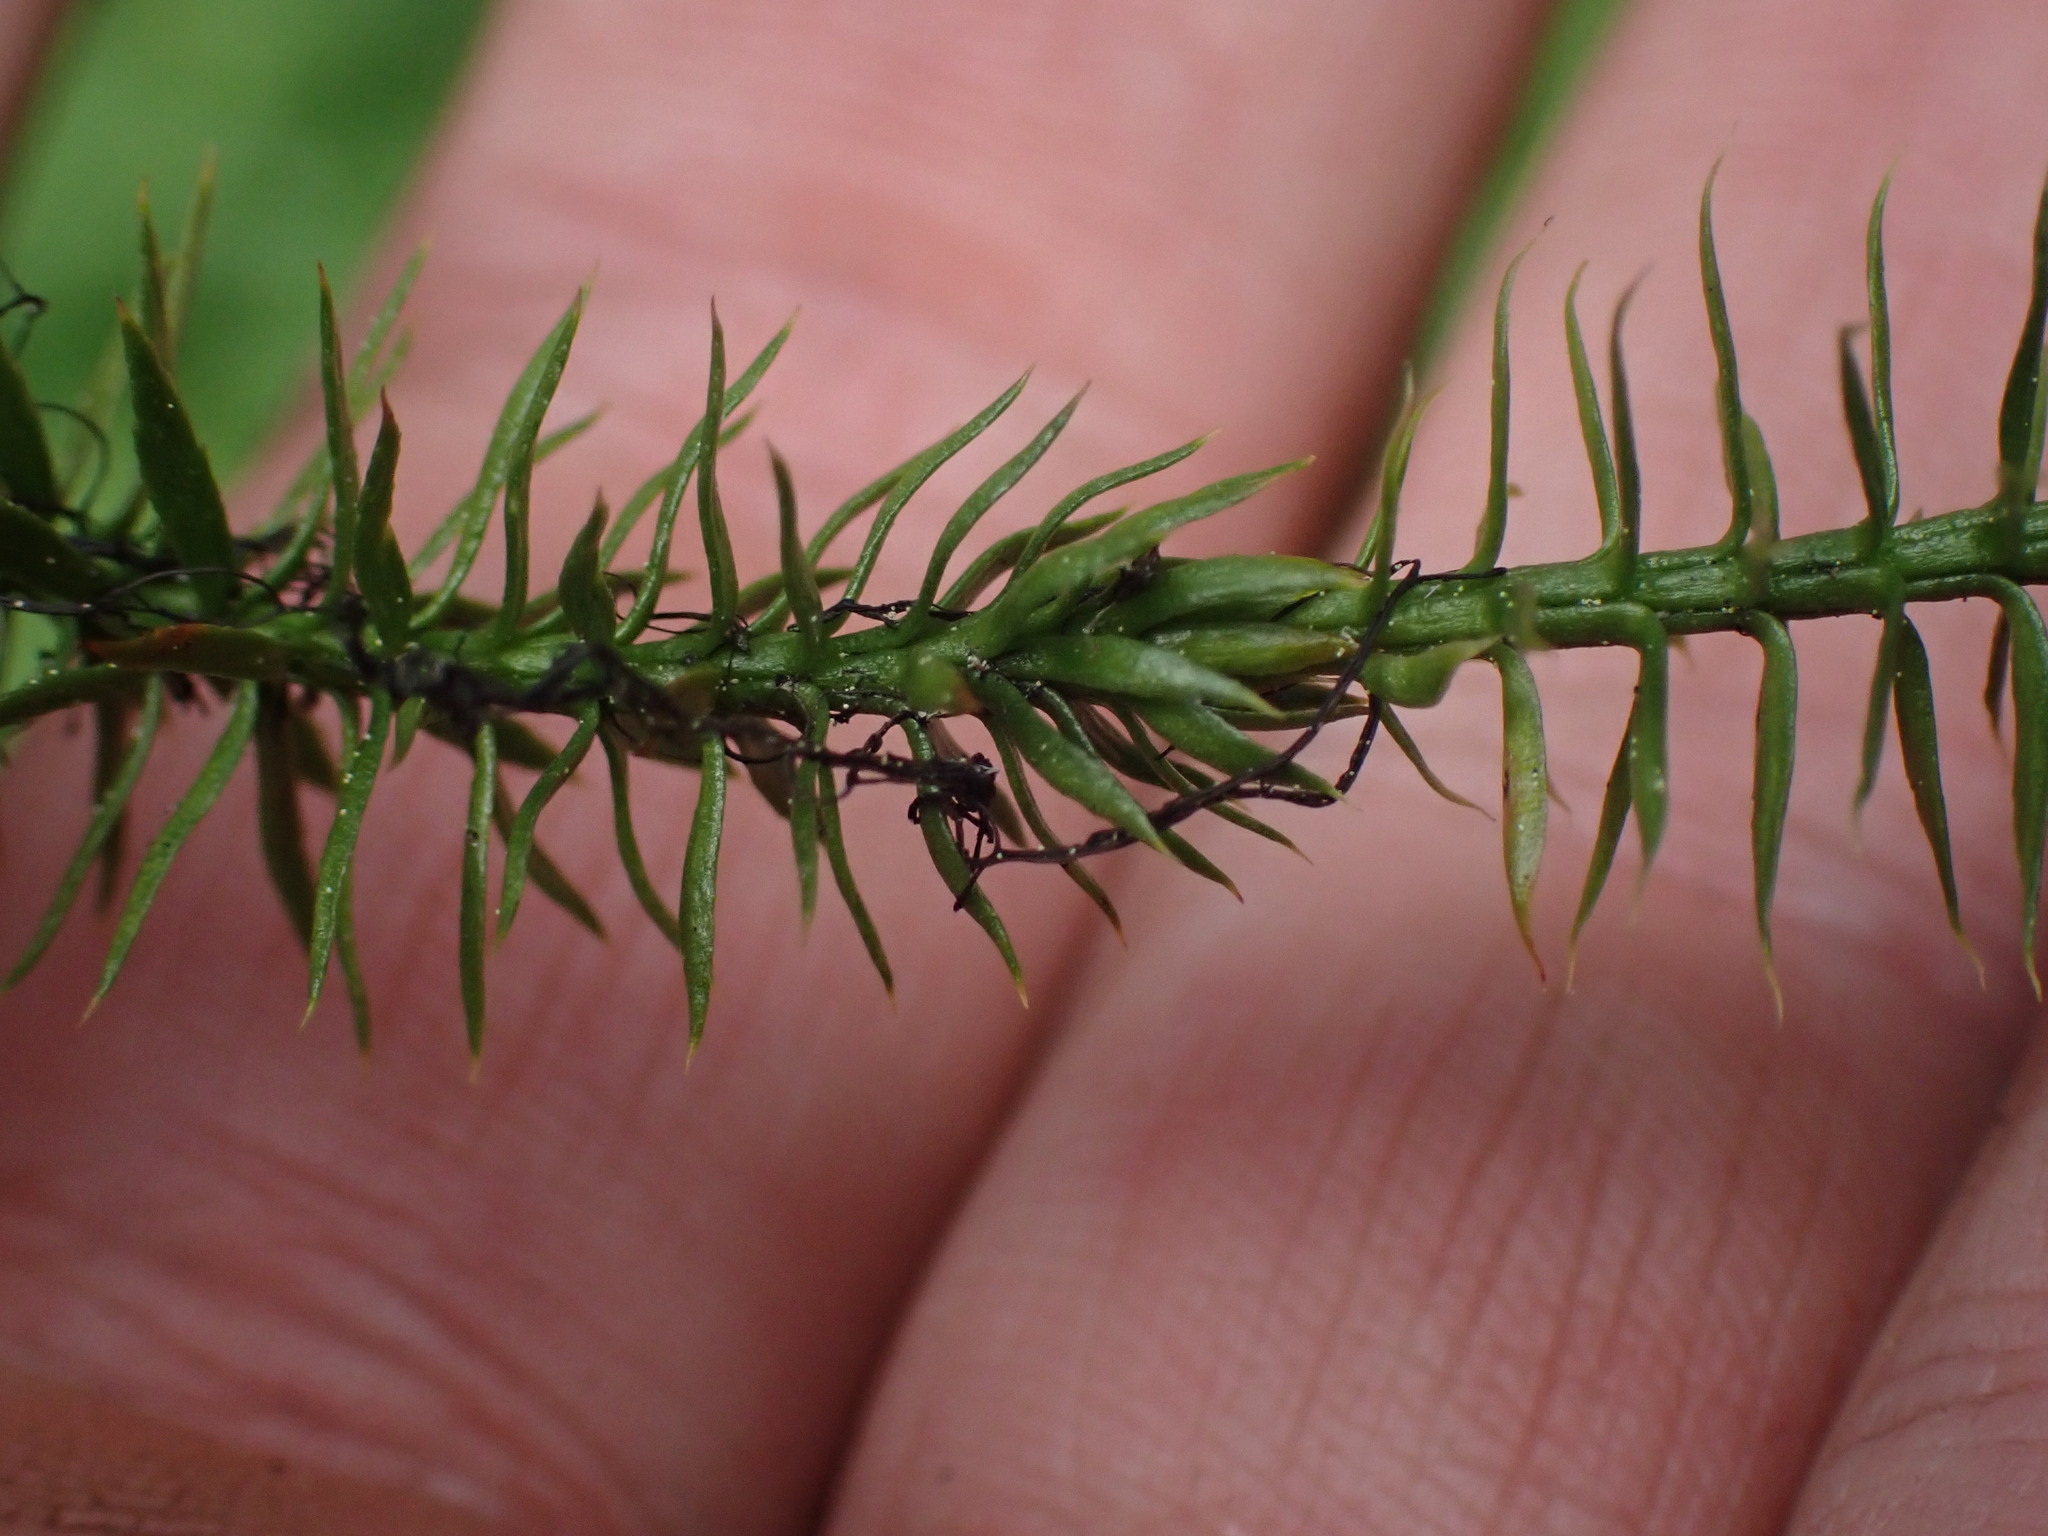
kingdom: Plantae
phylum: Tracheophyta
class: Lycopodiopsida
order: Lycopodiales
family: Lycopodiaceae
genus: Spinulum
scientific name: Spinulum annotinum
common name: Interrupted club-moss
